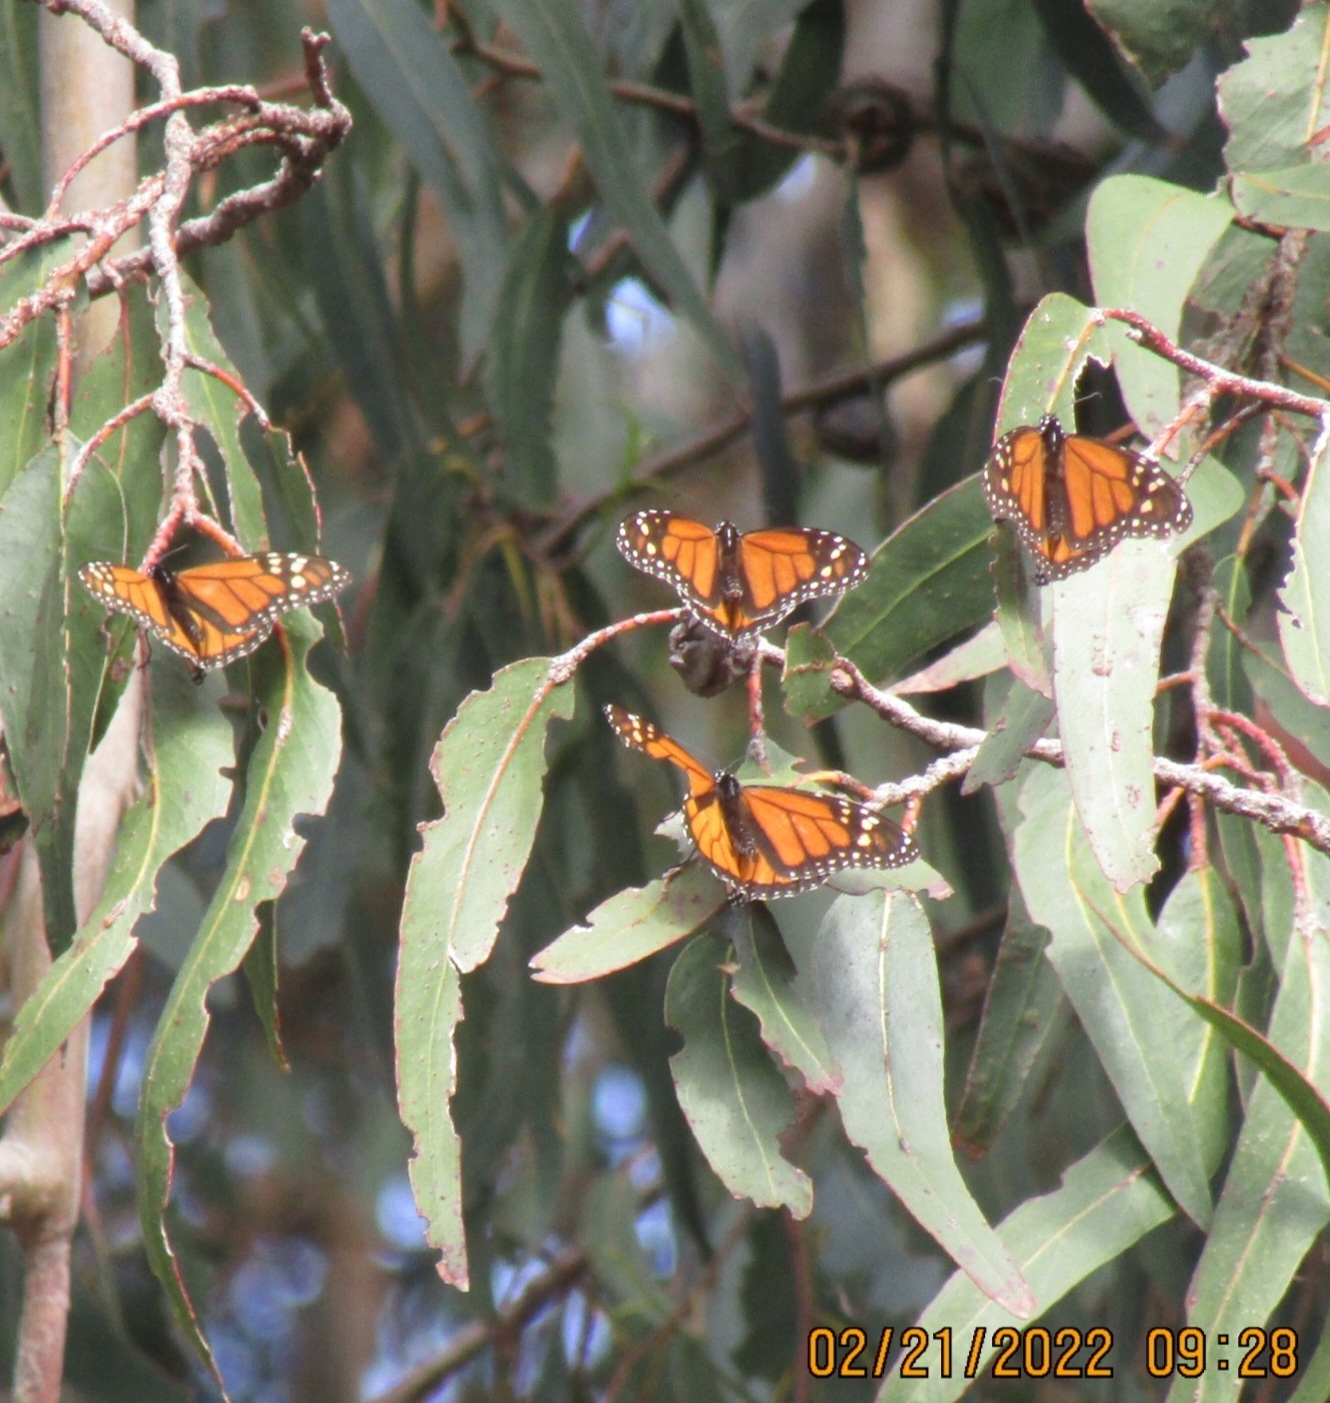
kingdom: Animalia
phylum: Arthropoda
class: Insecta
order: Lepidoptera
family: Nymphalidae
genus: Danaus
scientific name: Danaus plexippus
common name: Monarch
